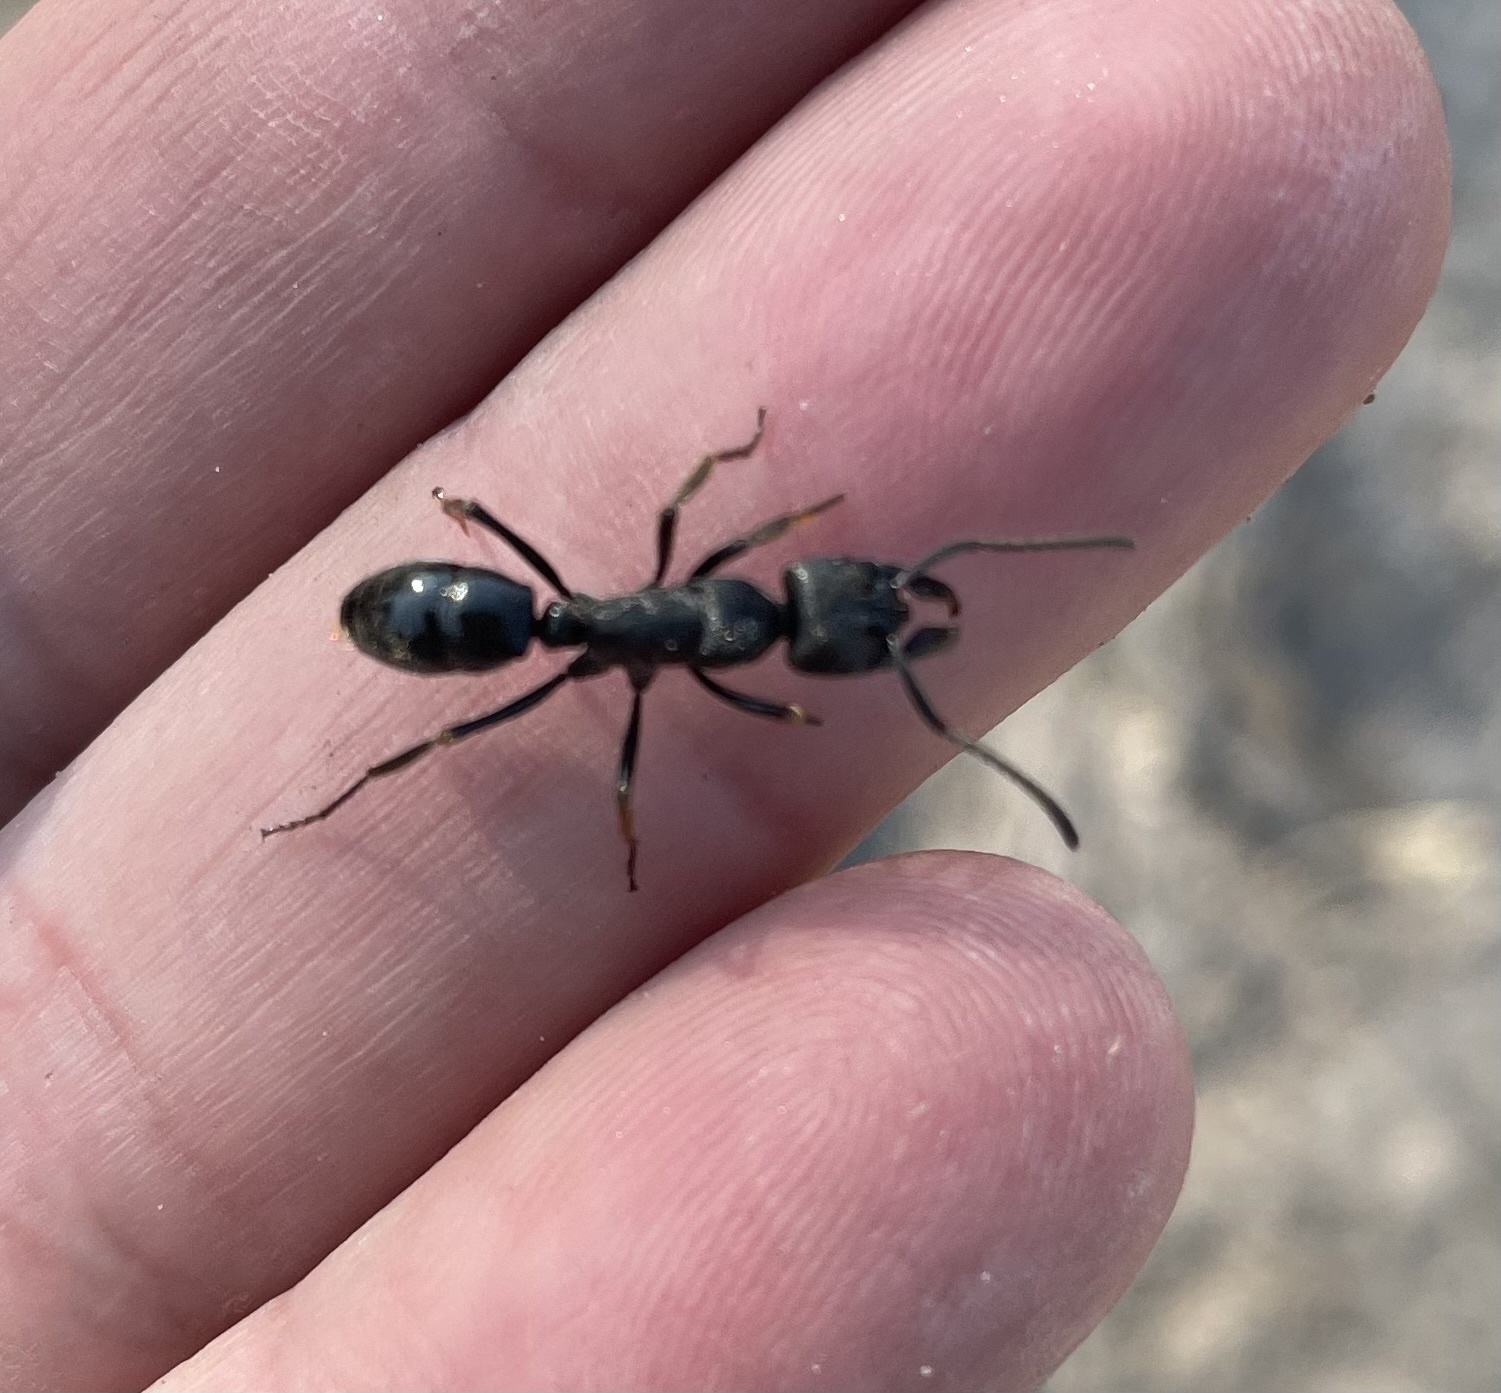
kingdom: Animalia
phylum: Arthropoda
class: Insecta
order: Hymenoptera
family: Formicidae
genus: Paltothyreus
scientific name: Paltothyreus tarsatus
